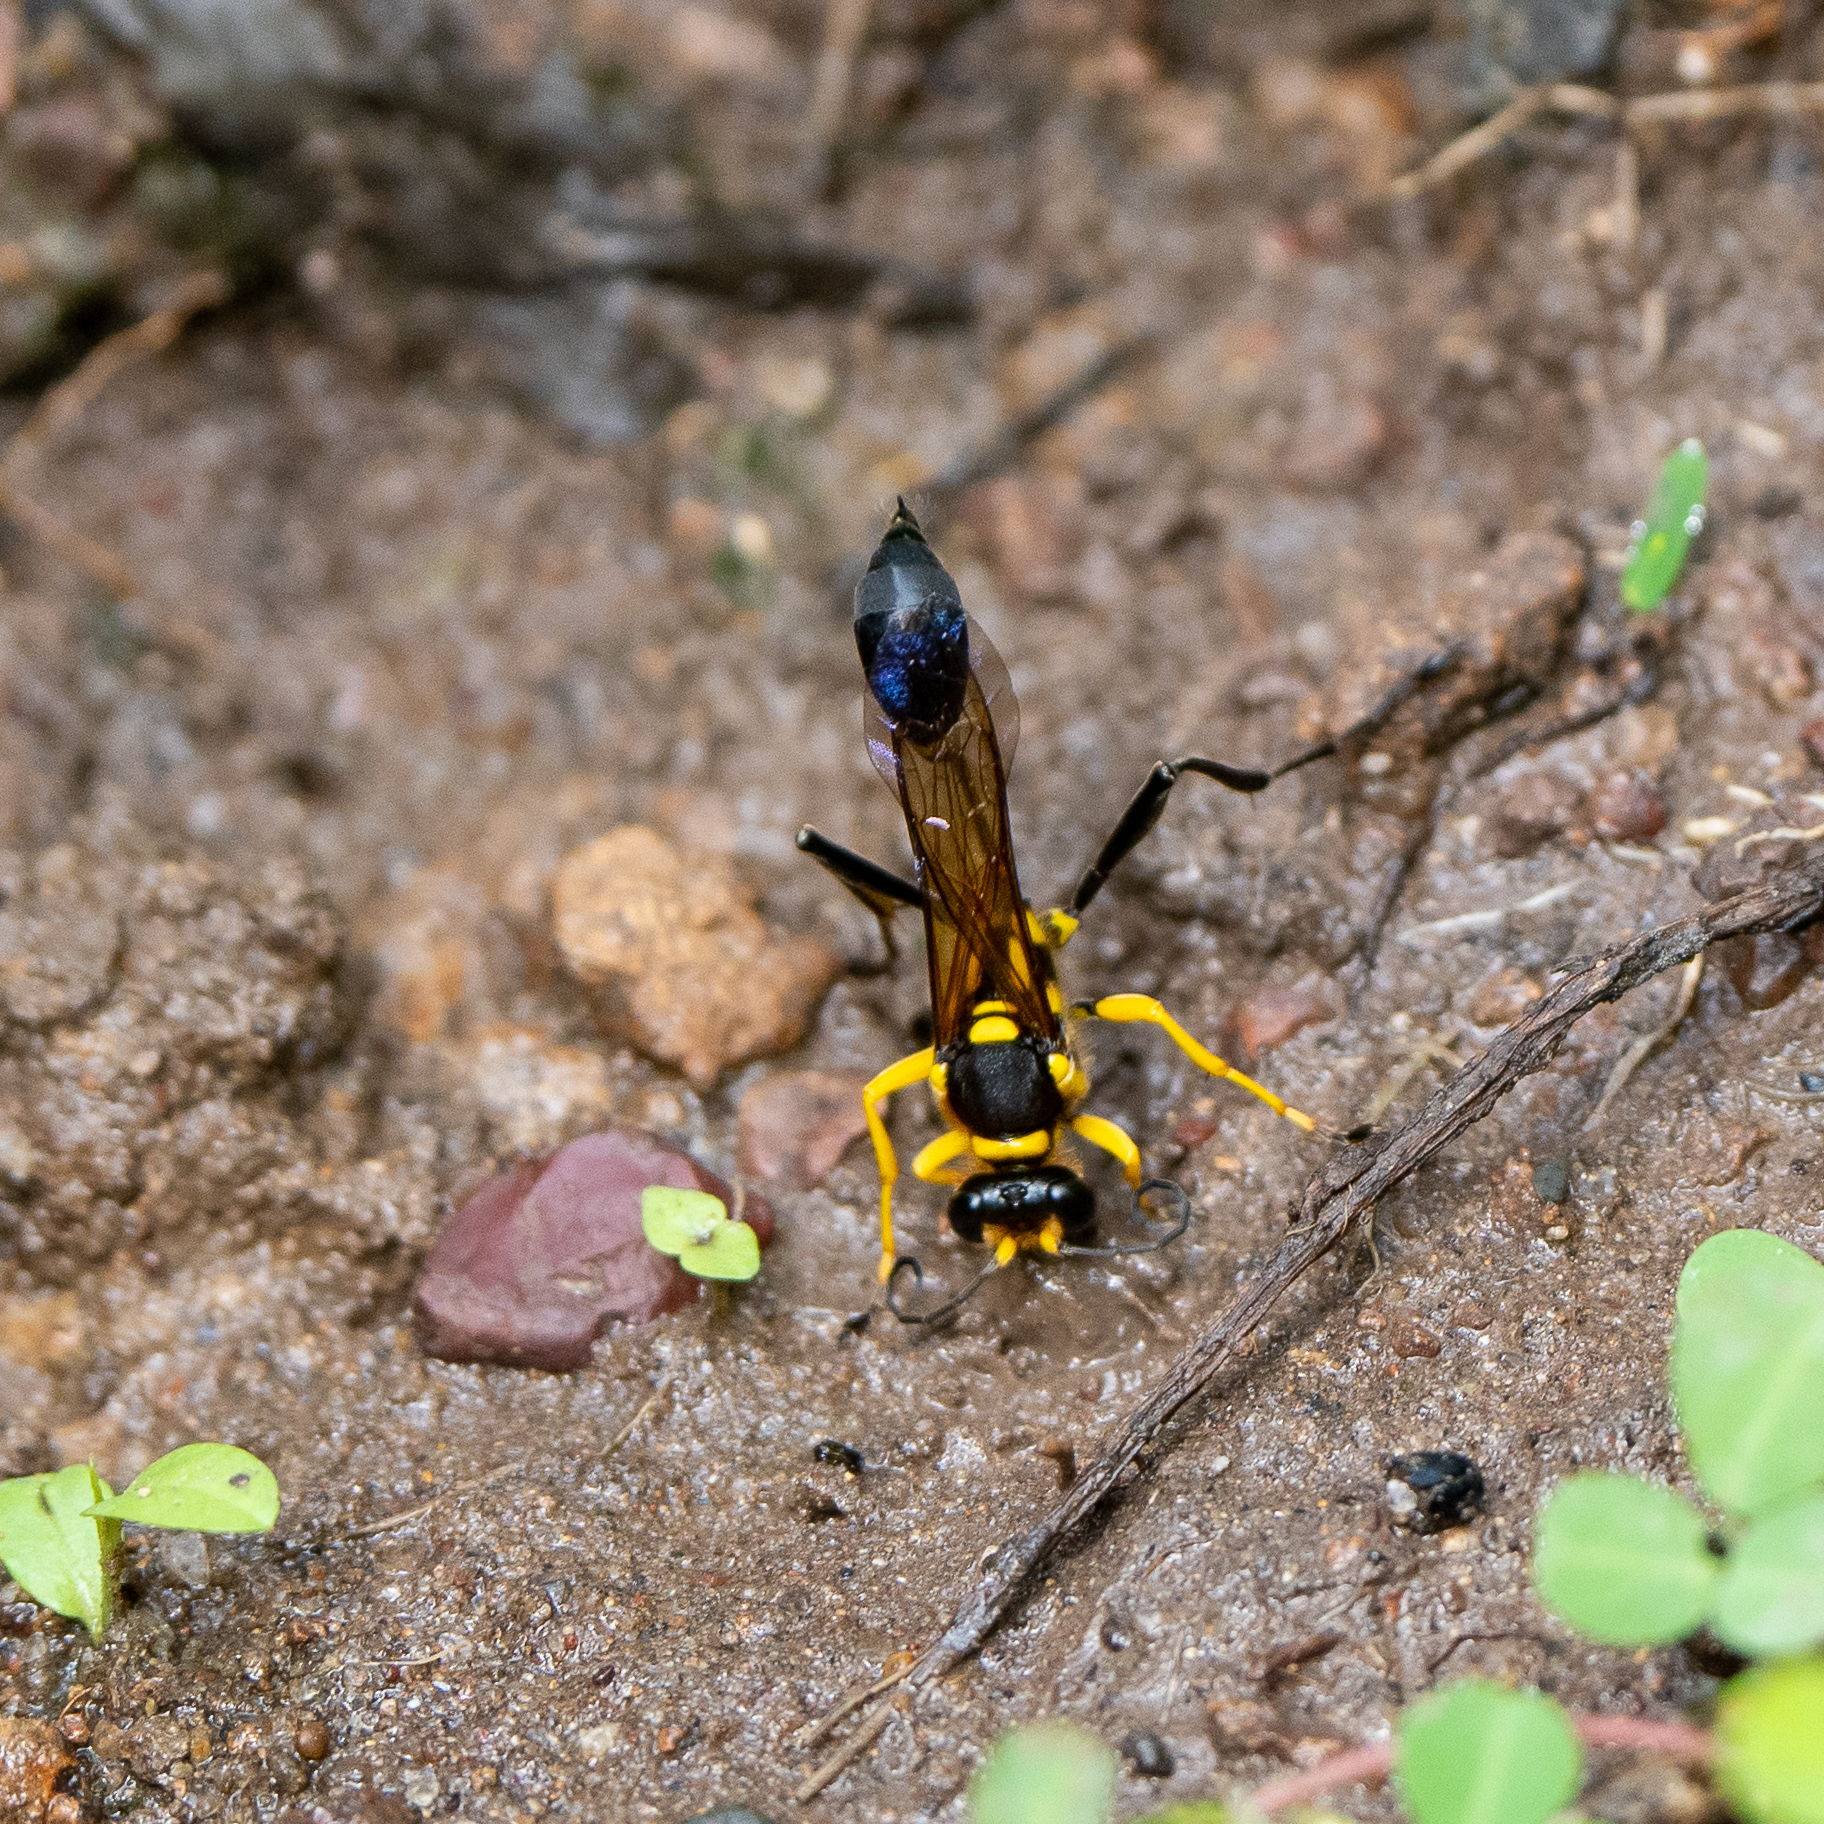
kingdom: Animalia
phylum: Arthropoda
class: Insecta
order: Hymenoptera
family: Sphecidae
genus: Sceliphron
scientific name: Sceliphron fistularium
